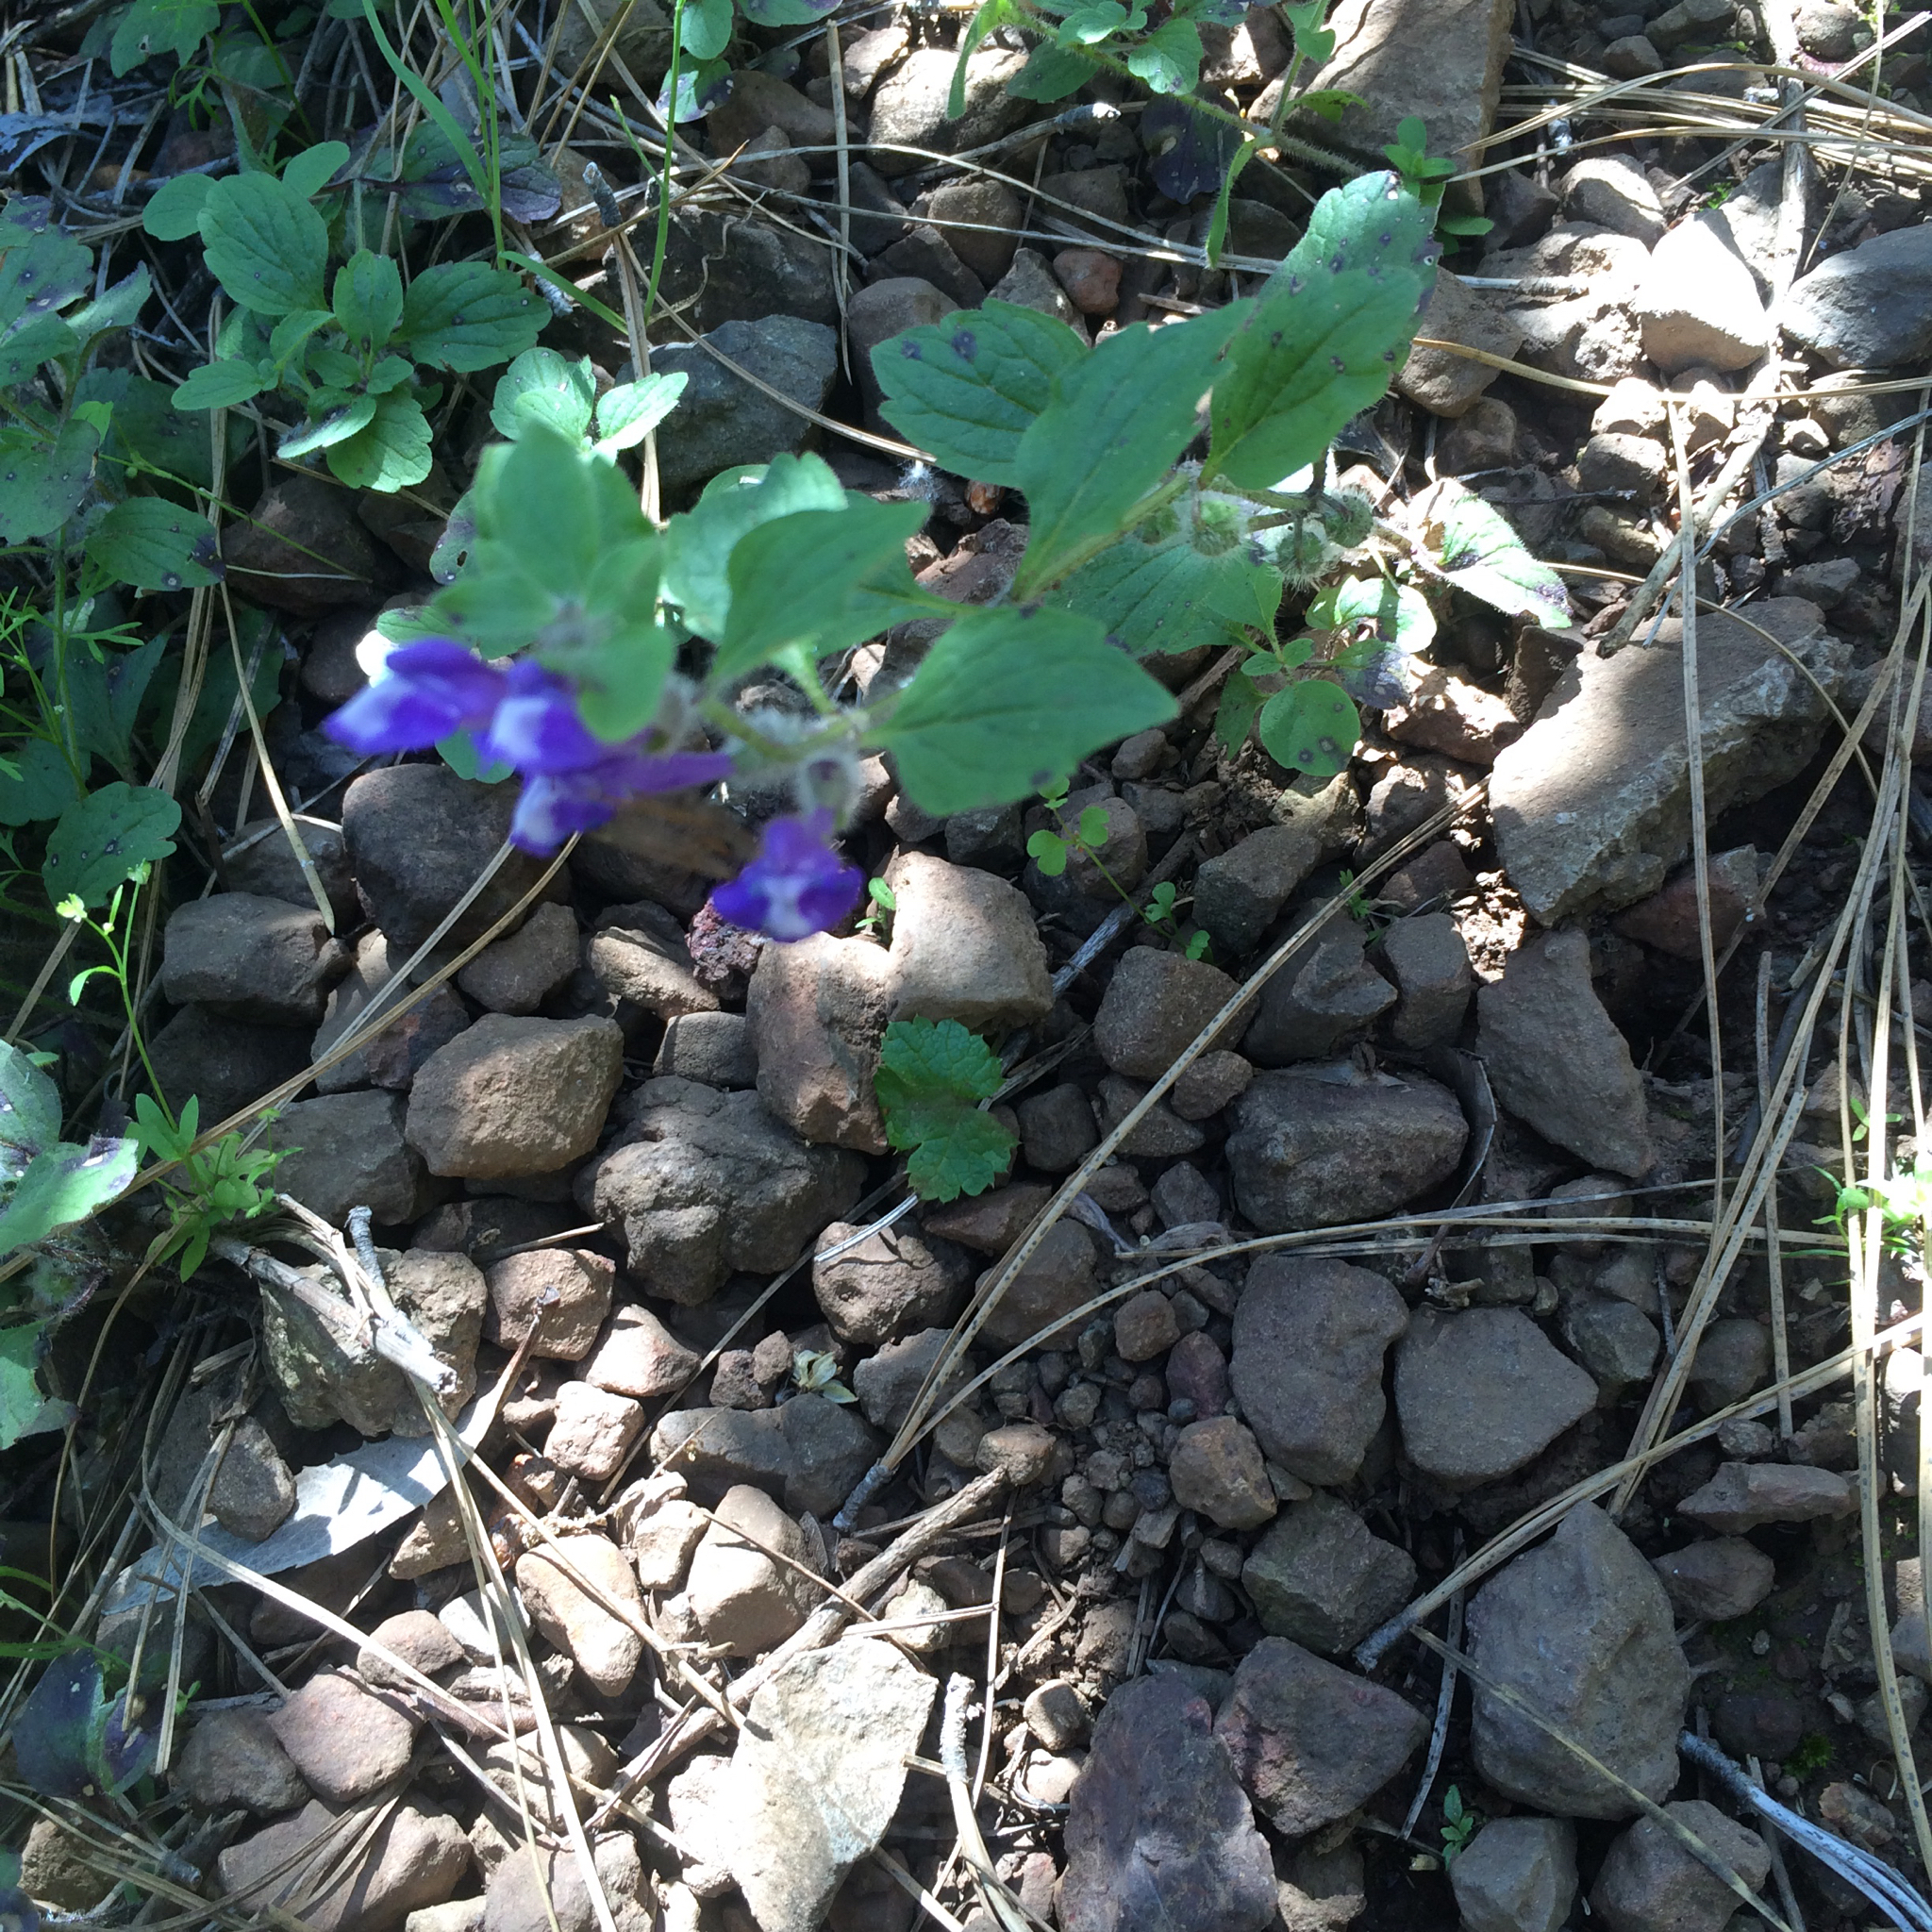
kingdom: Plantae
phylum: Tracheophyta
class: Magnoliopsida
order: Lamiales
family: Lamiaceae
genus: Scutellaria
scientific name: Scutellaria tuberosa
